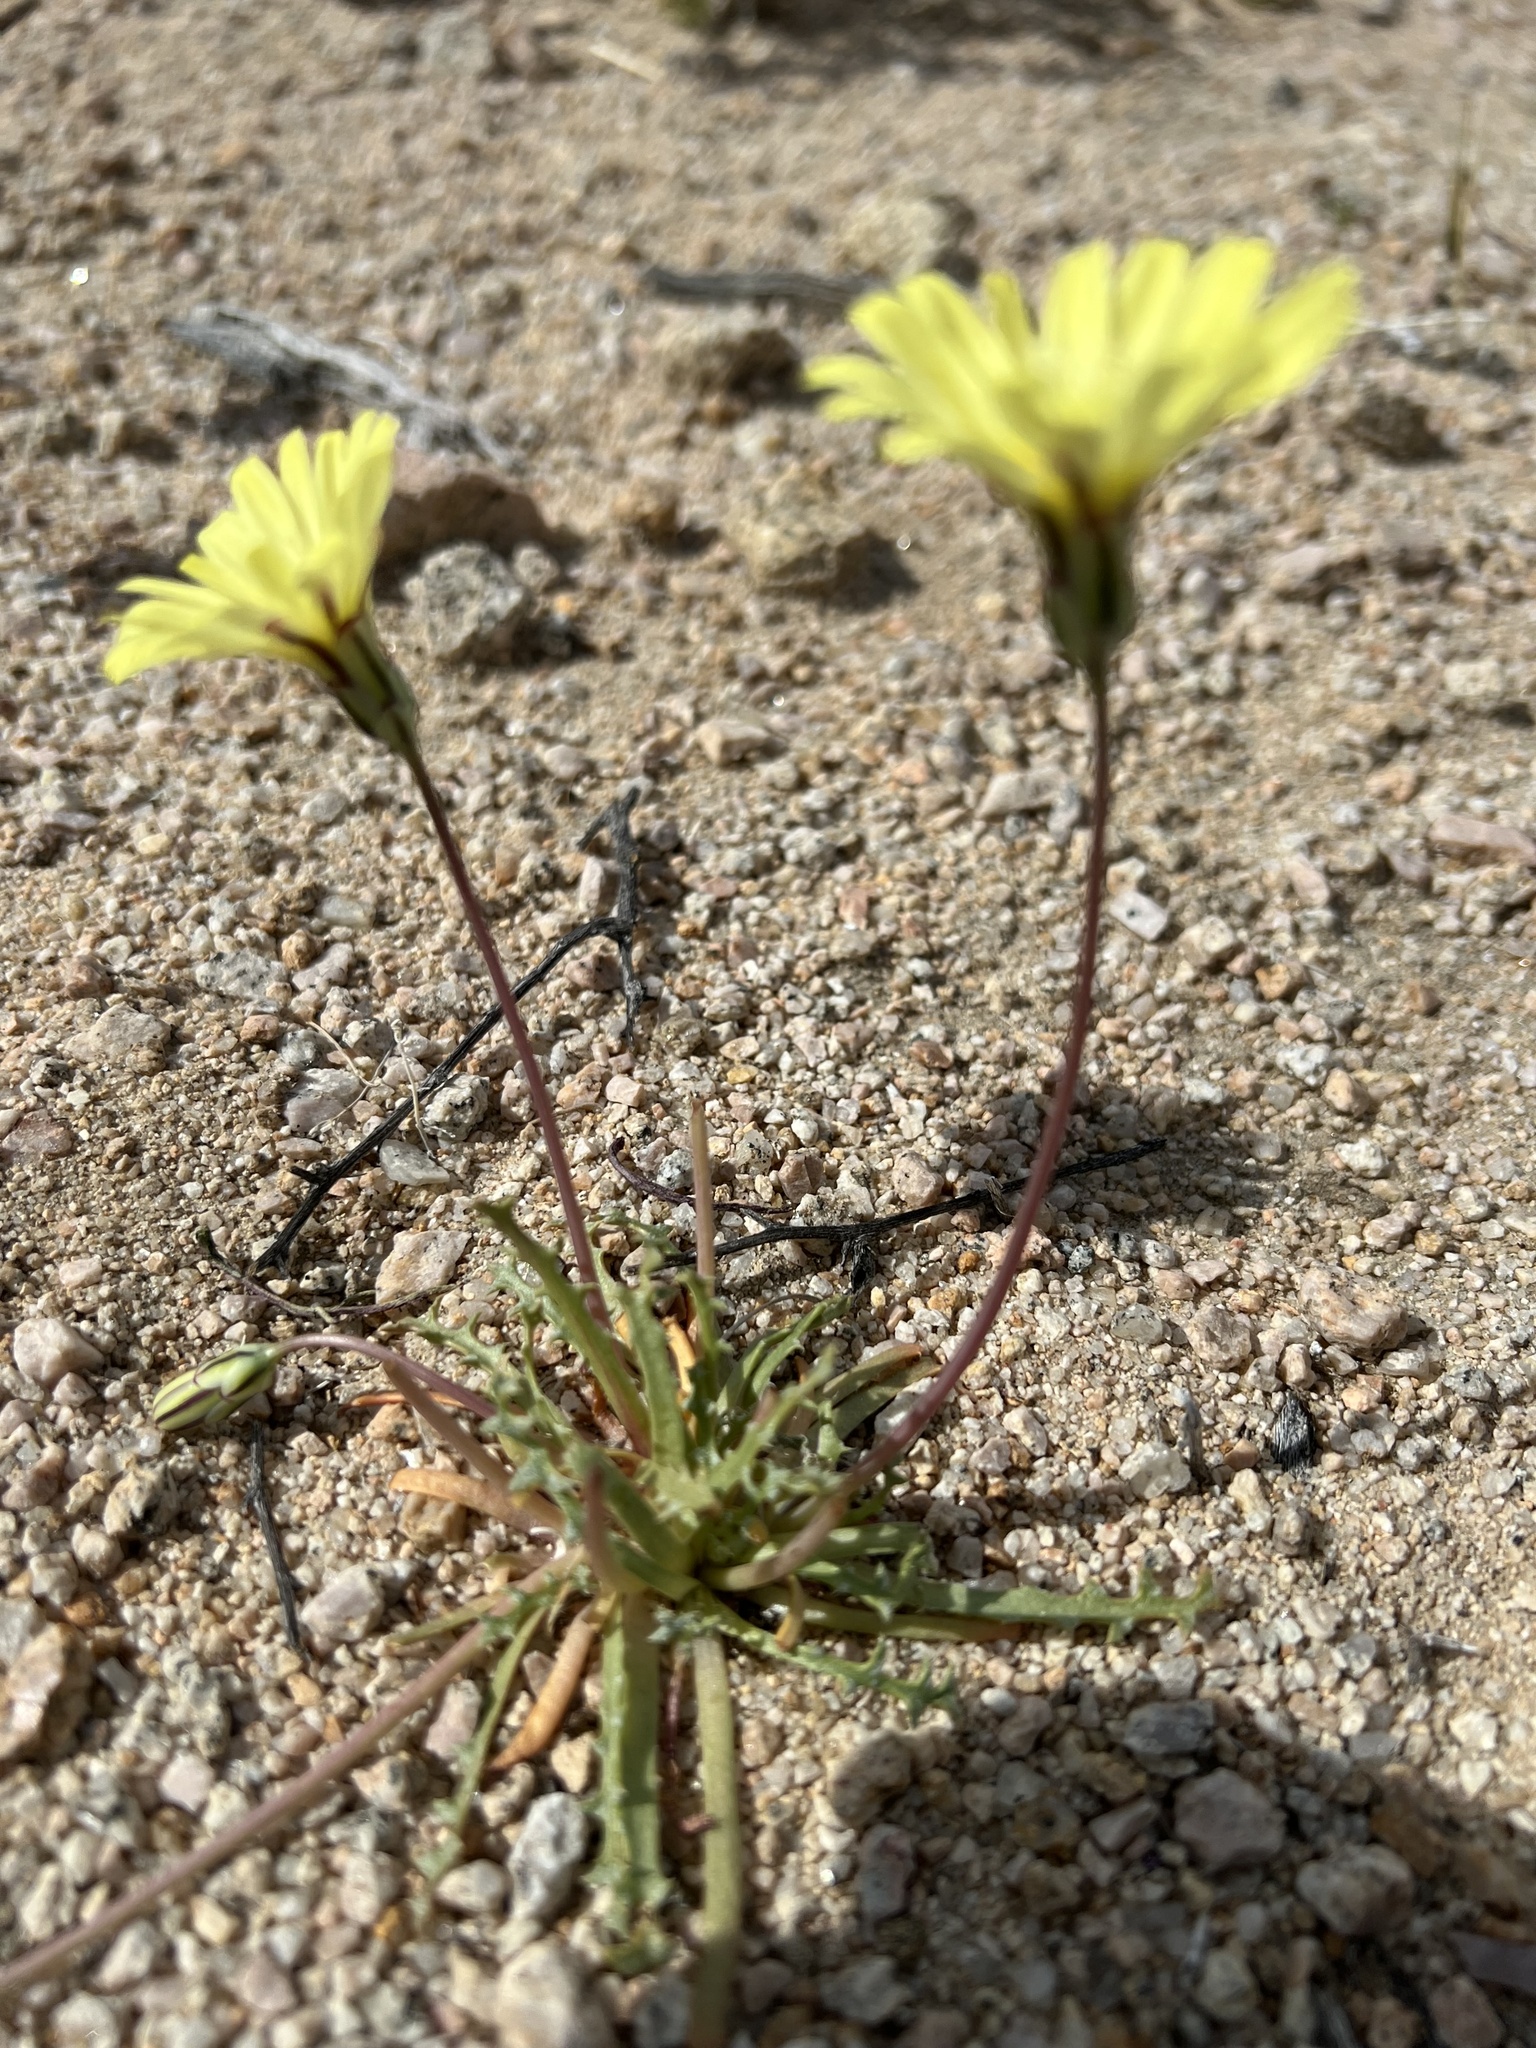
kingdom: Plantae
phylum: Tracheophyta
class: Magnoliopsida
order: Asterales
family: Asteraceae
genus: Anisocoma
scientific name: Anisocoma acaulis
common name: Scalebud
